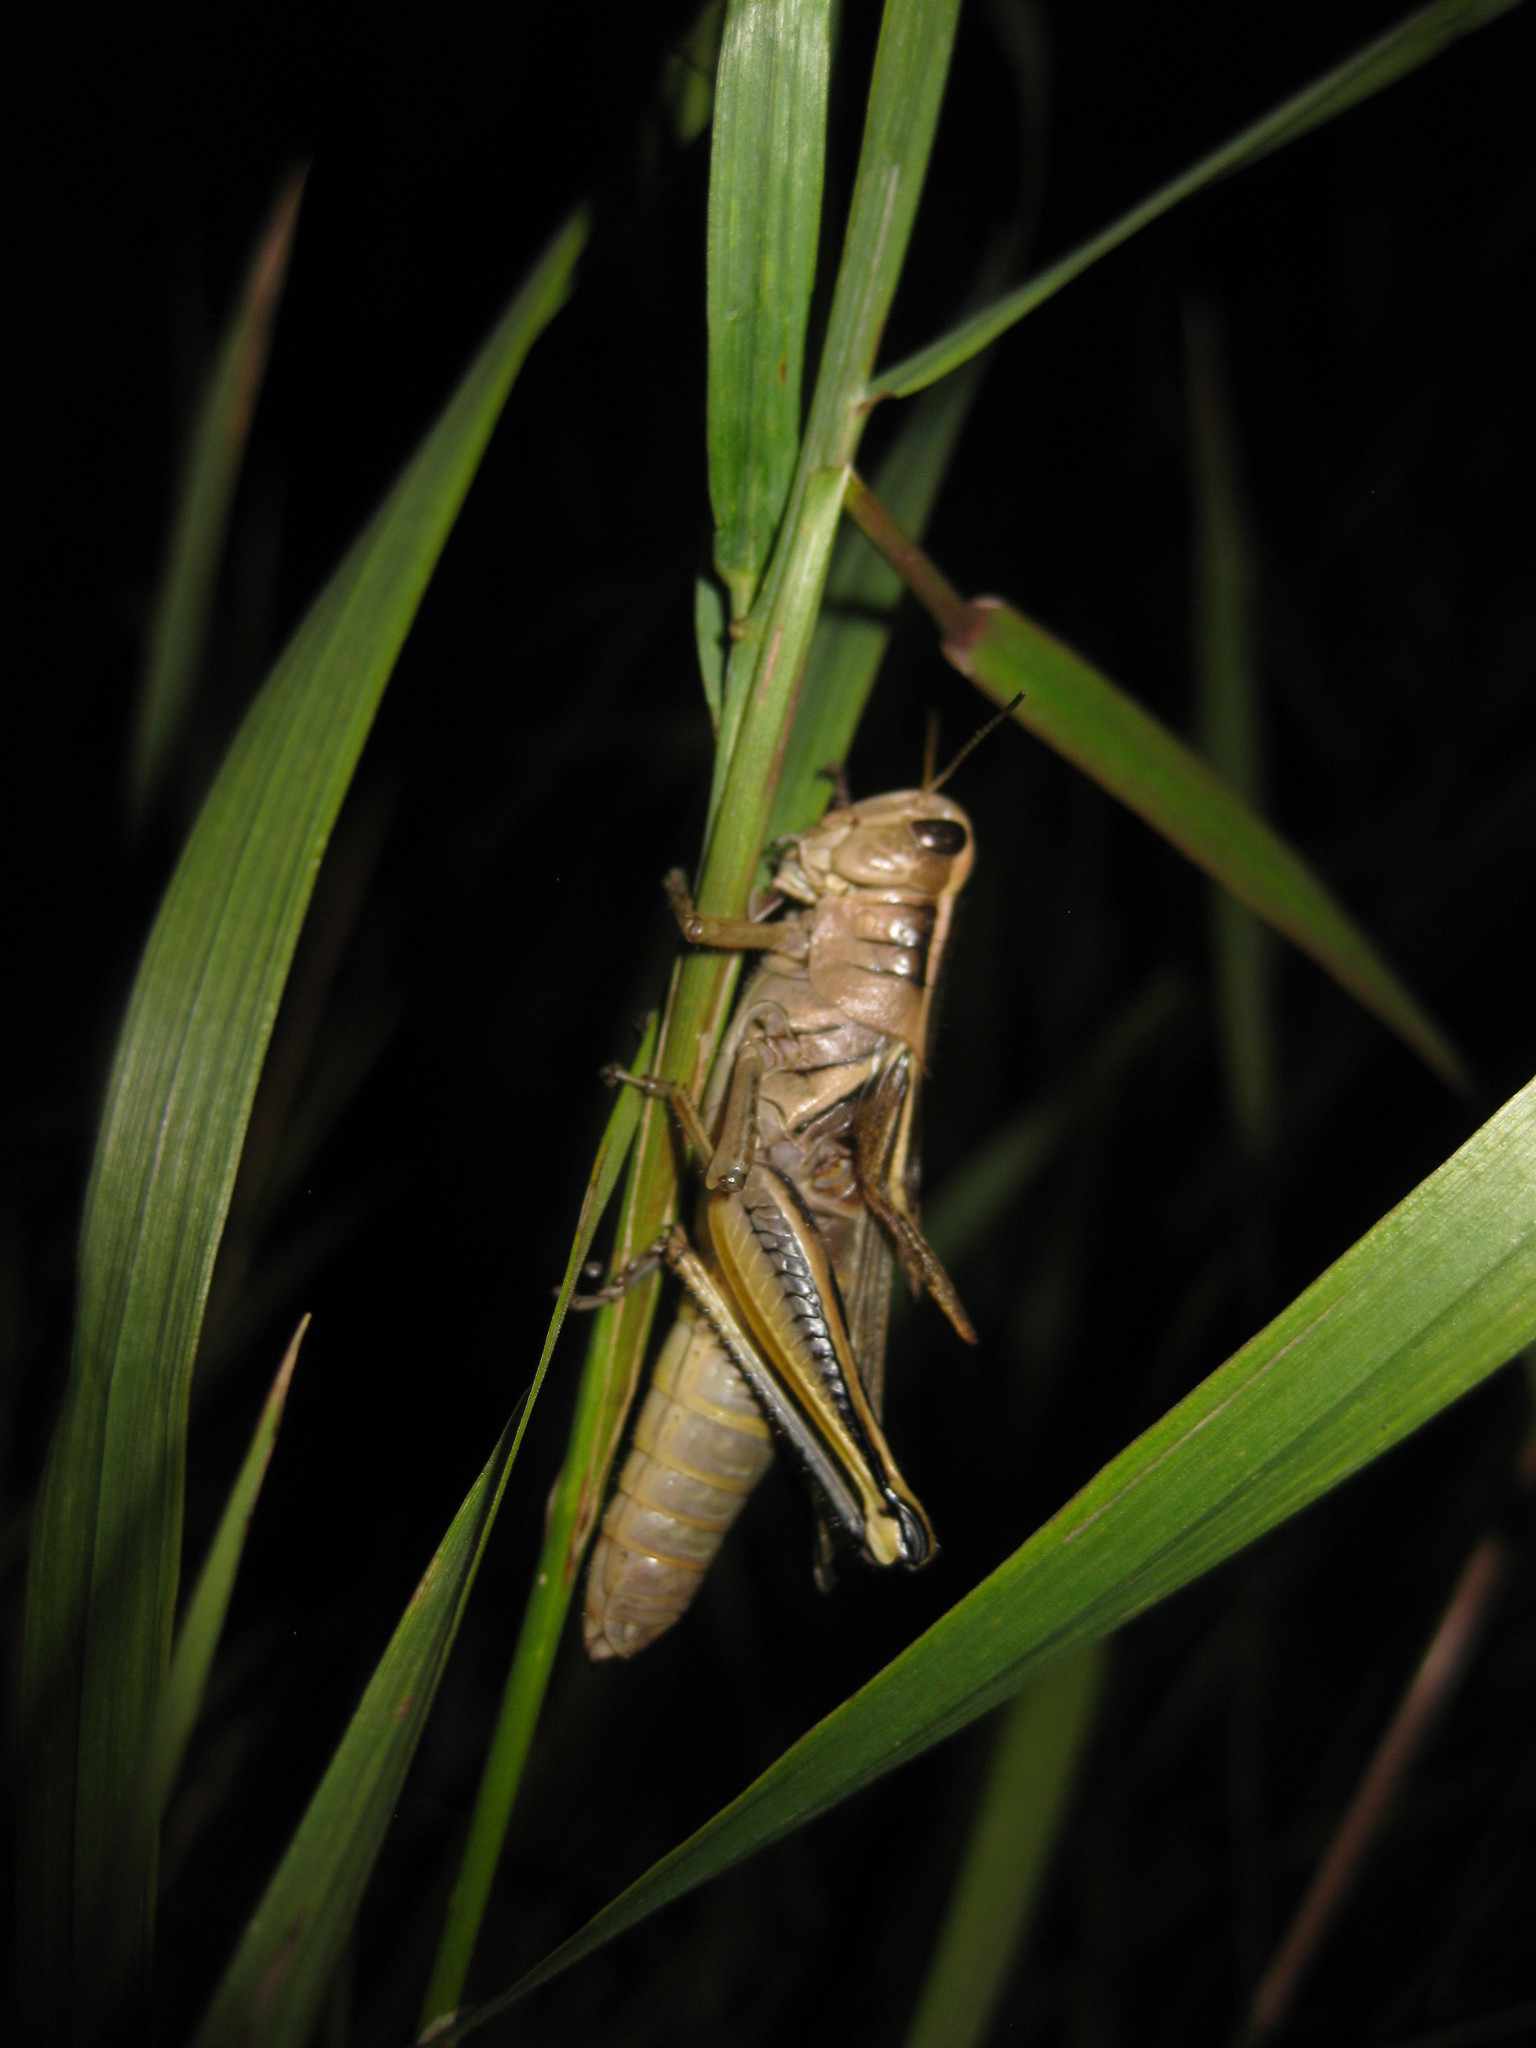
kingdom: Animalia
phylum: Arthropoda
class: Insecta
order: Orthoptera
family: Acrididae
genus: Melanoplus
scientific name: Melanoplus bivittatus
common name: Two-striped grasshopper
